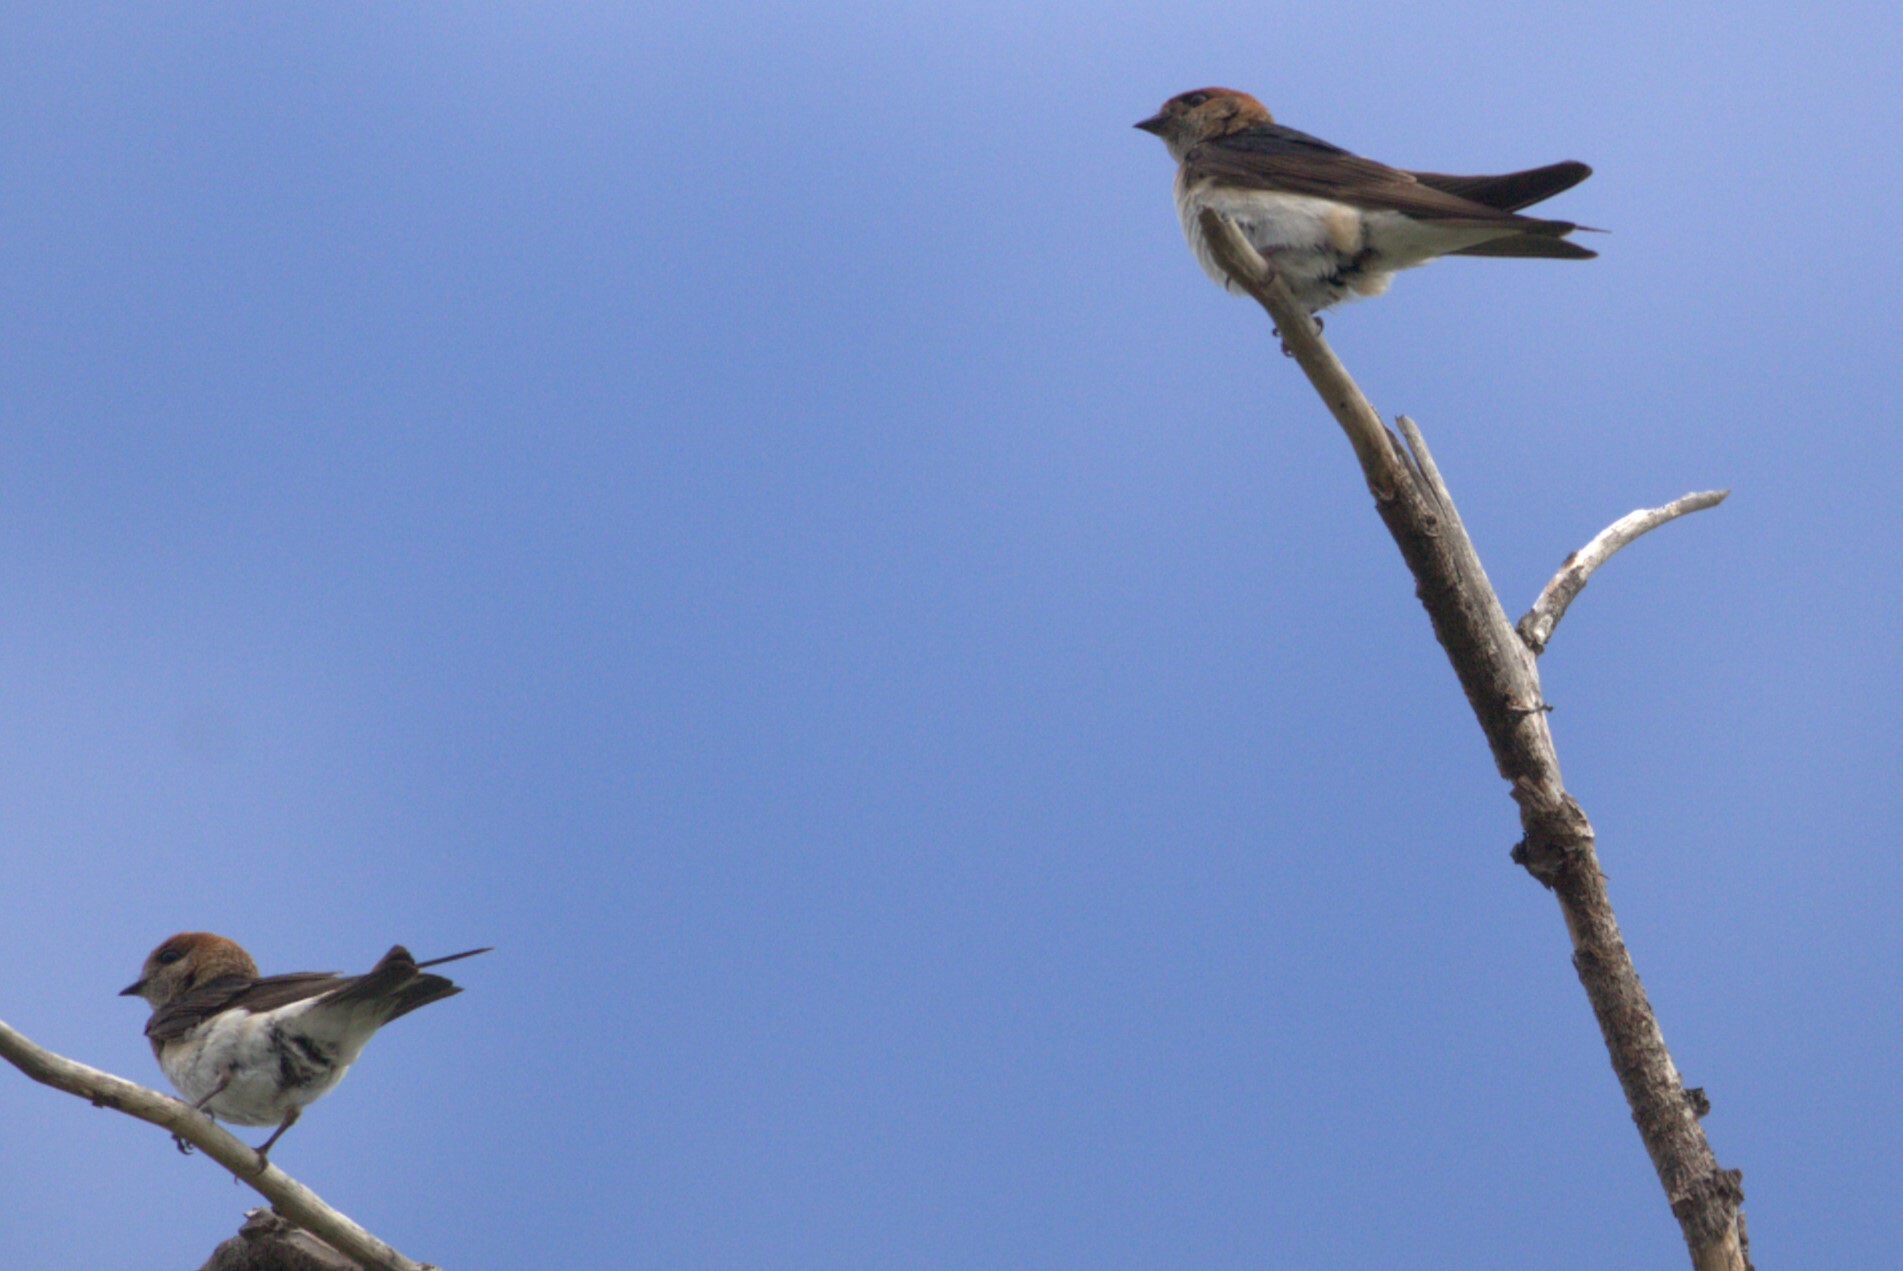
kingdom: Animalia
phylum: Chordata
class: Aves
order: Passeriformes
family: Hirundinidae
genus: Petrochelidon
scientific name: Petrochelidon ariel
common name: Fairy martin
